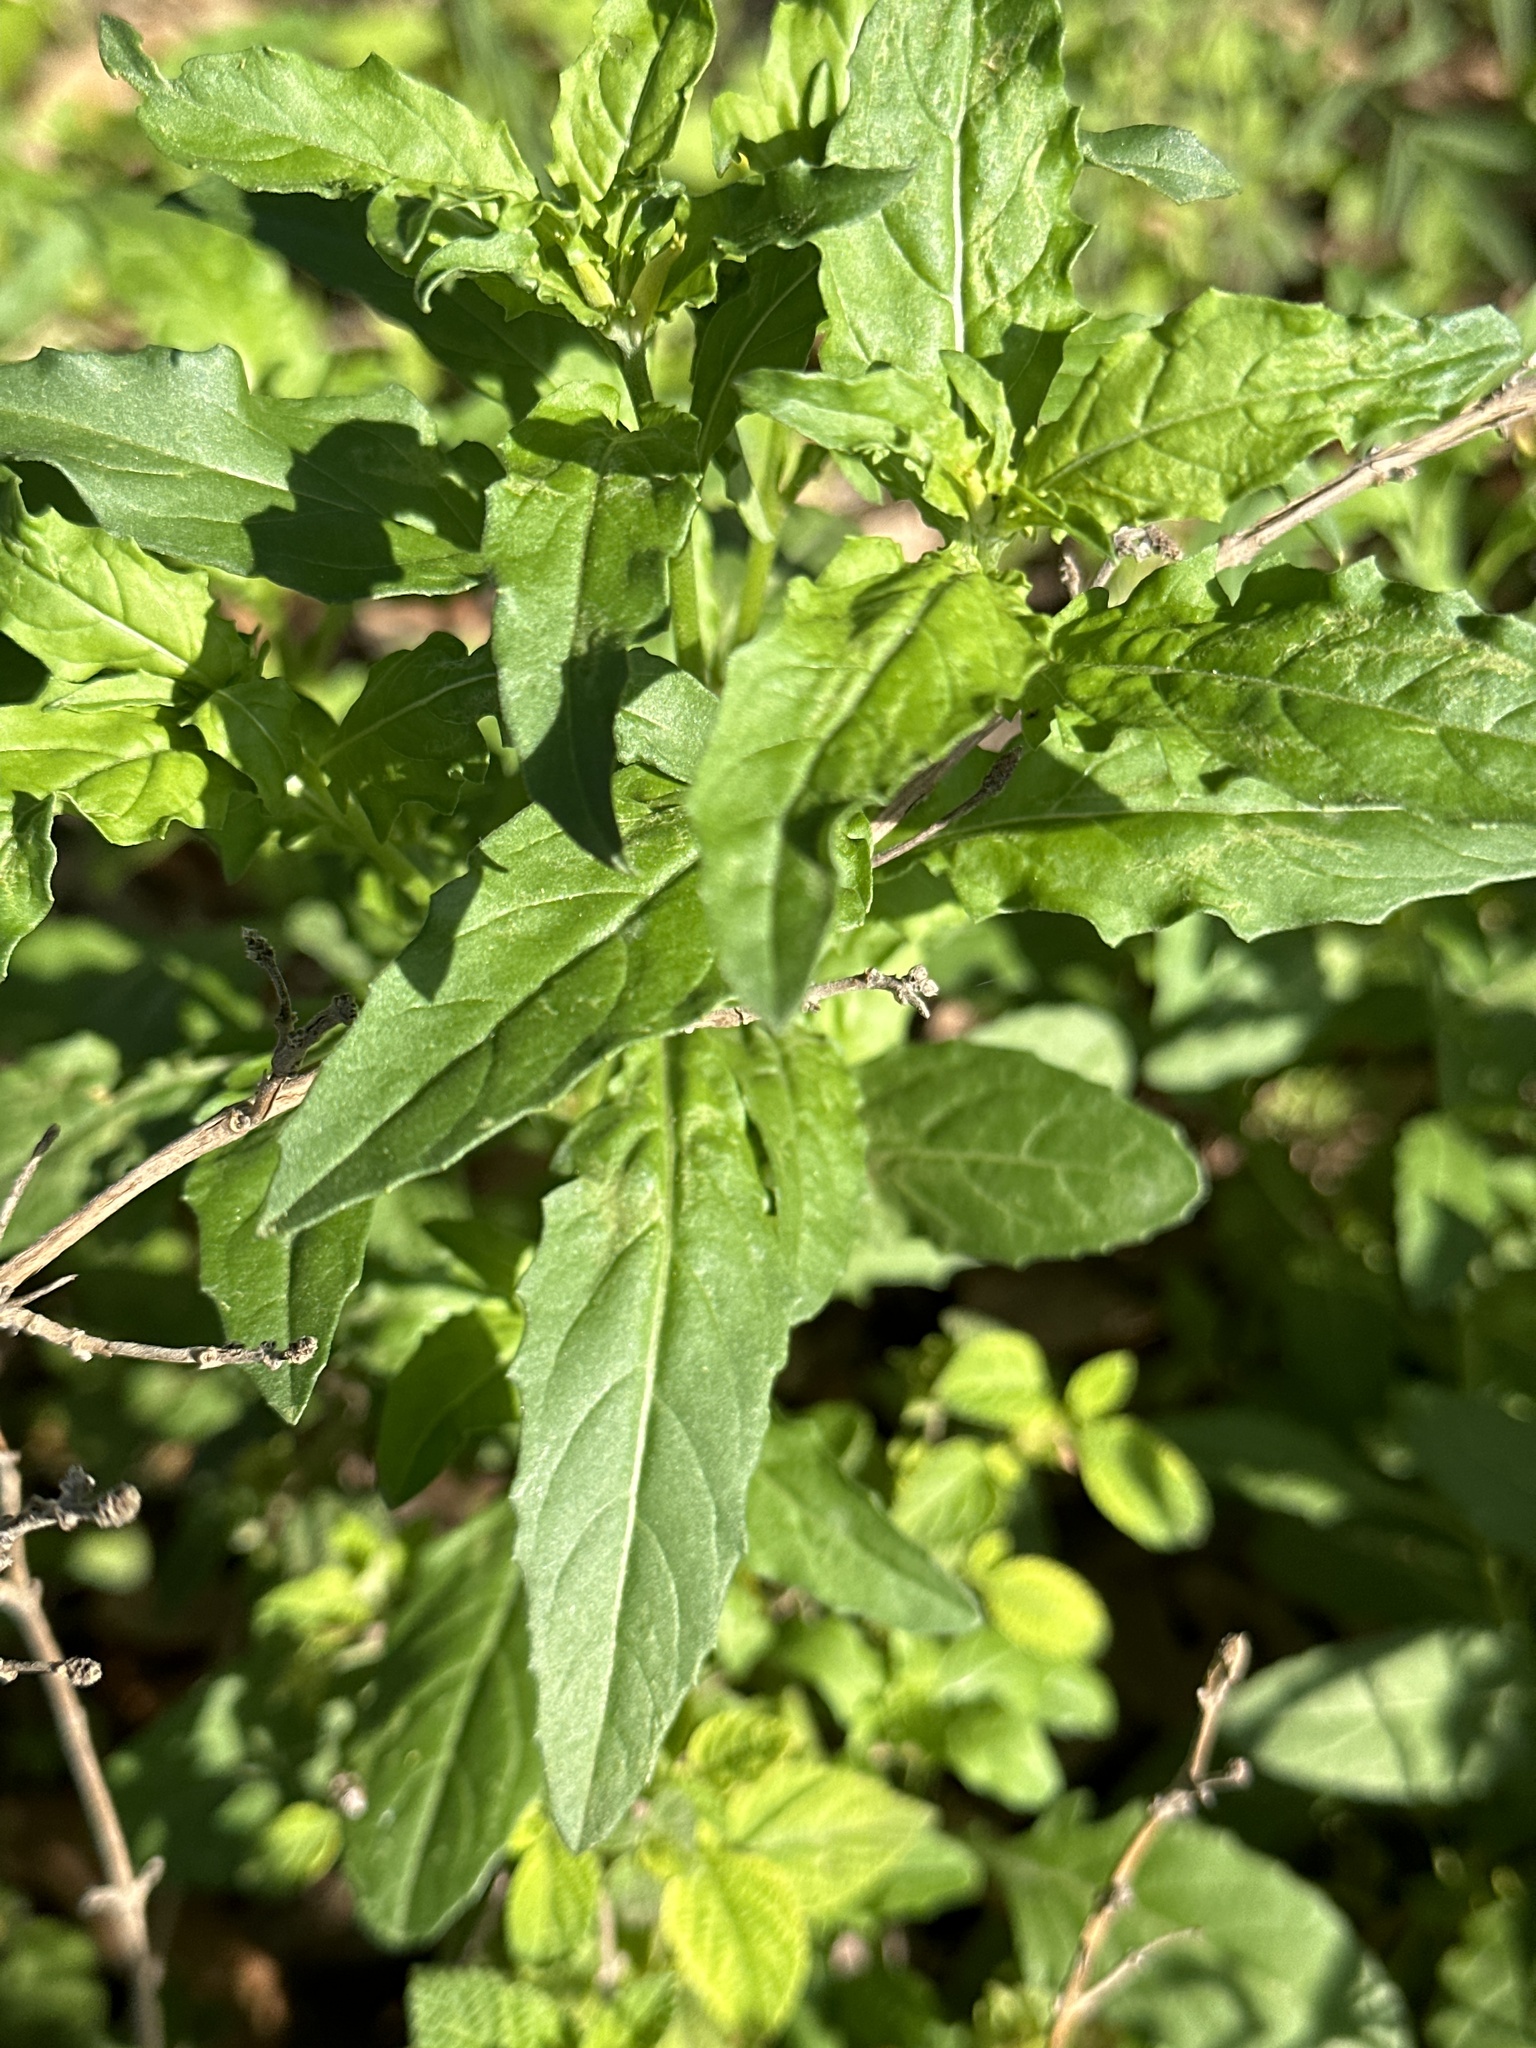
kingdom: Plantae
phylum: Tracheophyta
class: Magnoliopsida
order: Myrtales
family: Onagraceae
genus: Oenothera
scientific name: Oenothera speciosa
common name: White evening-primrose
